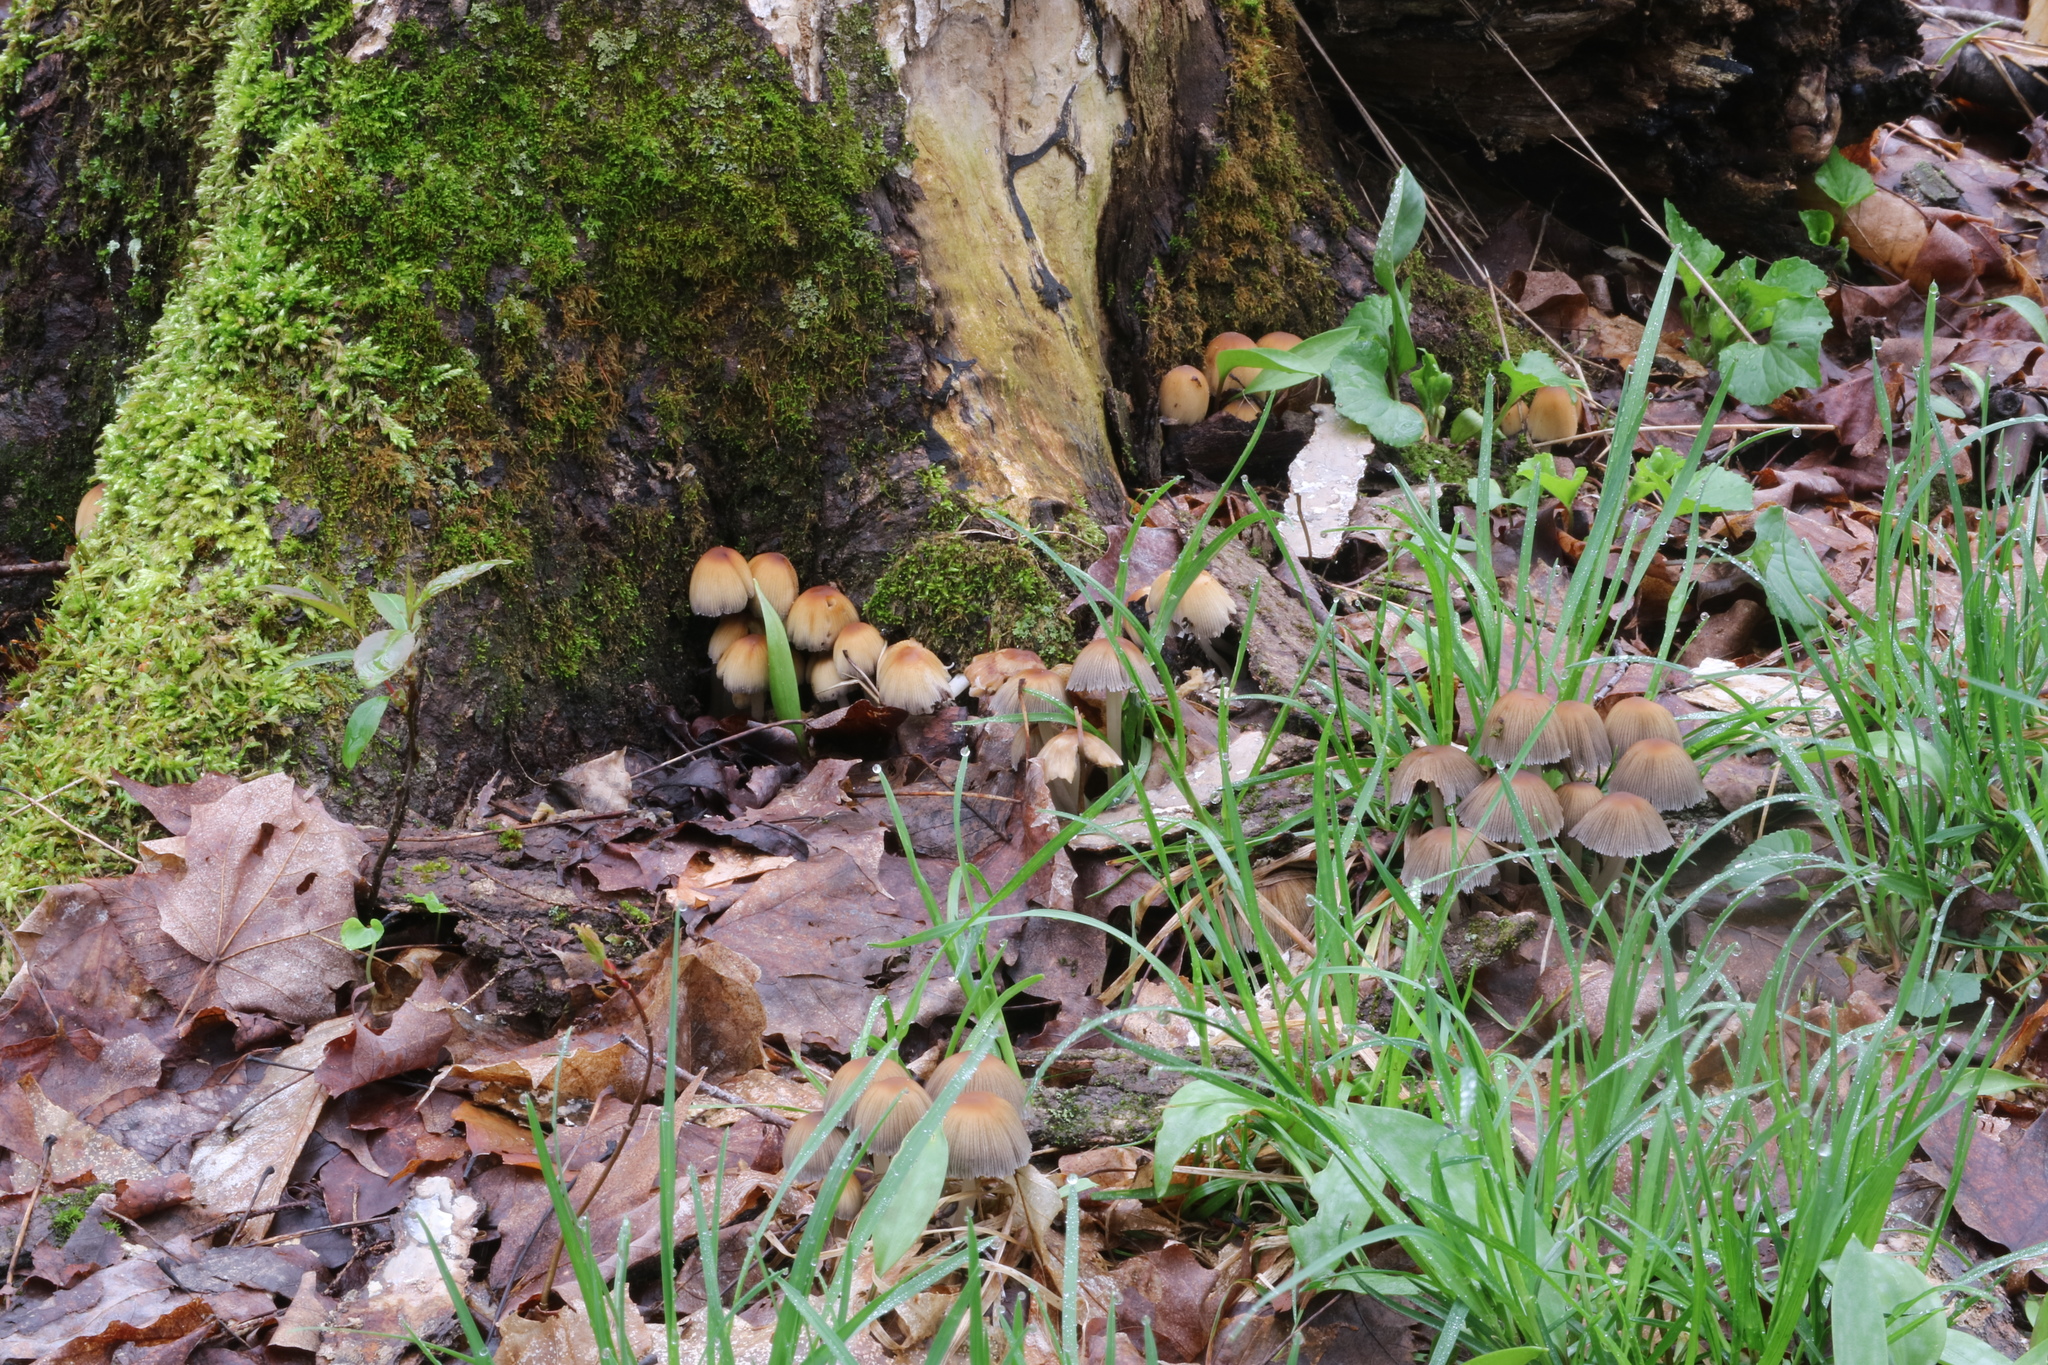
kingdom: Fungi
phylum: Basidiomycota
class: Agaricomycetes
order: Agaricales
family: Psathyrellaceae
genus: Coprinellus
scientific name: Coprinellus micaceus
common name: Glistening ink-cap
